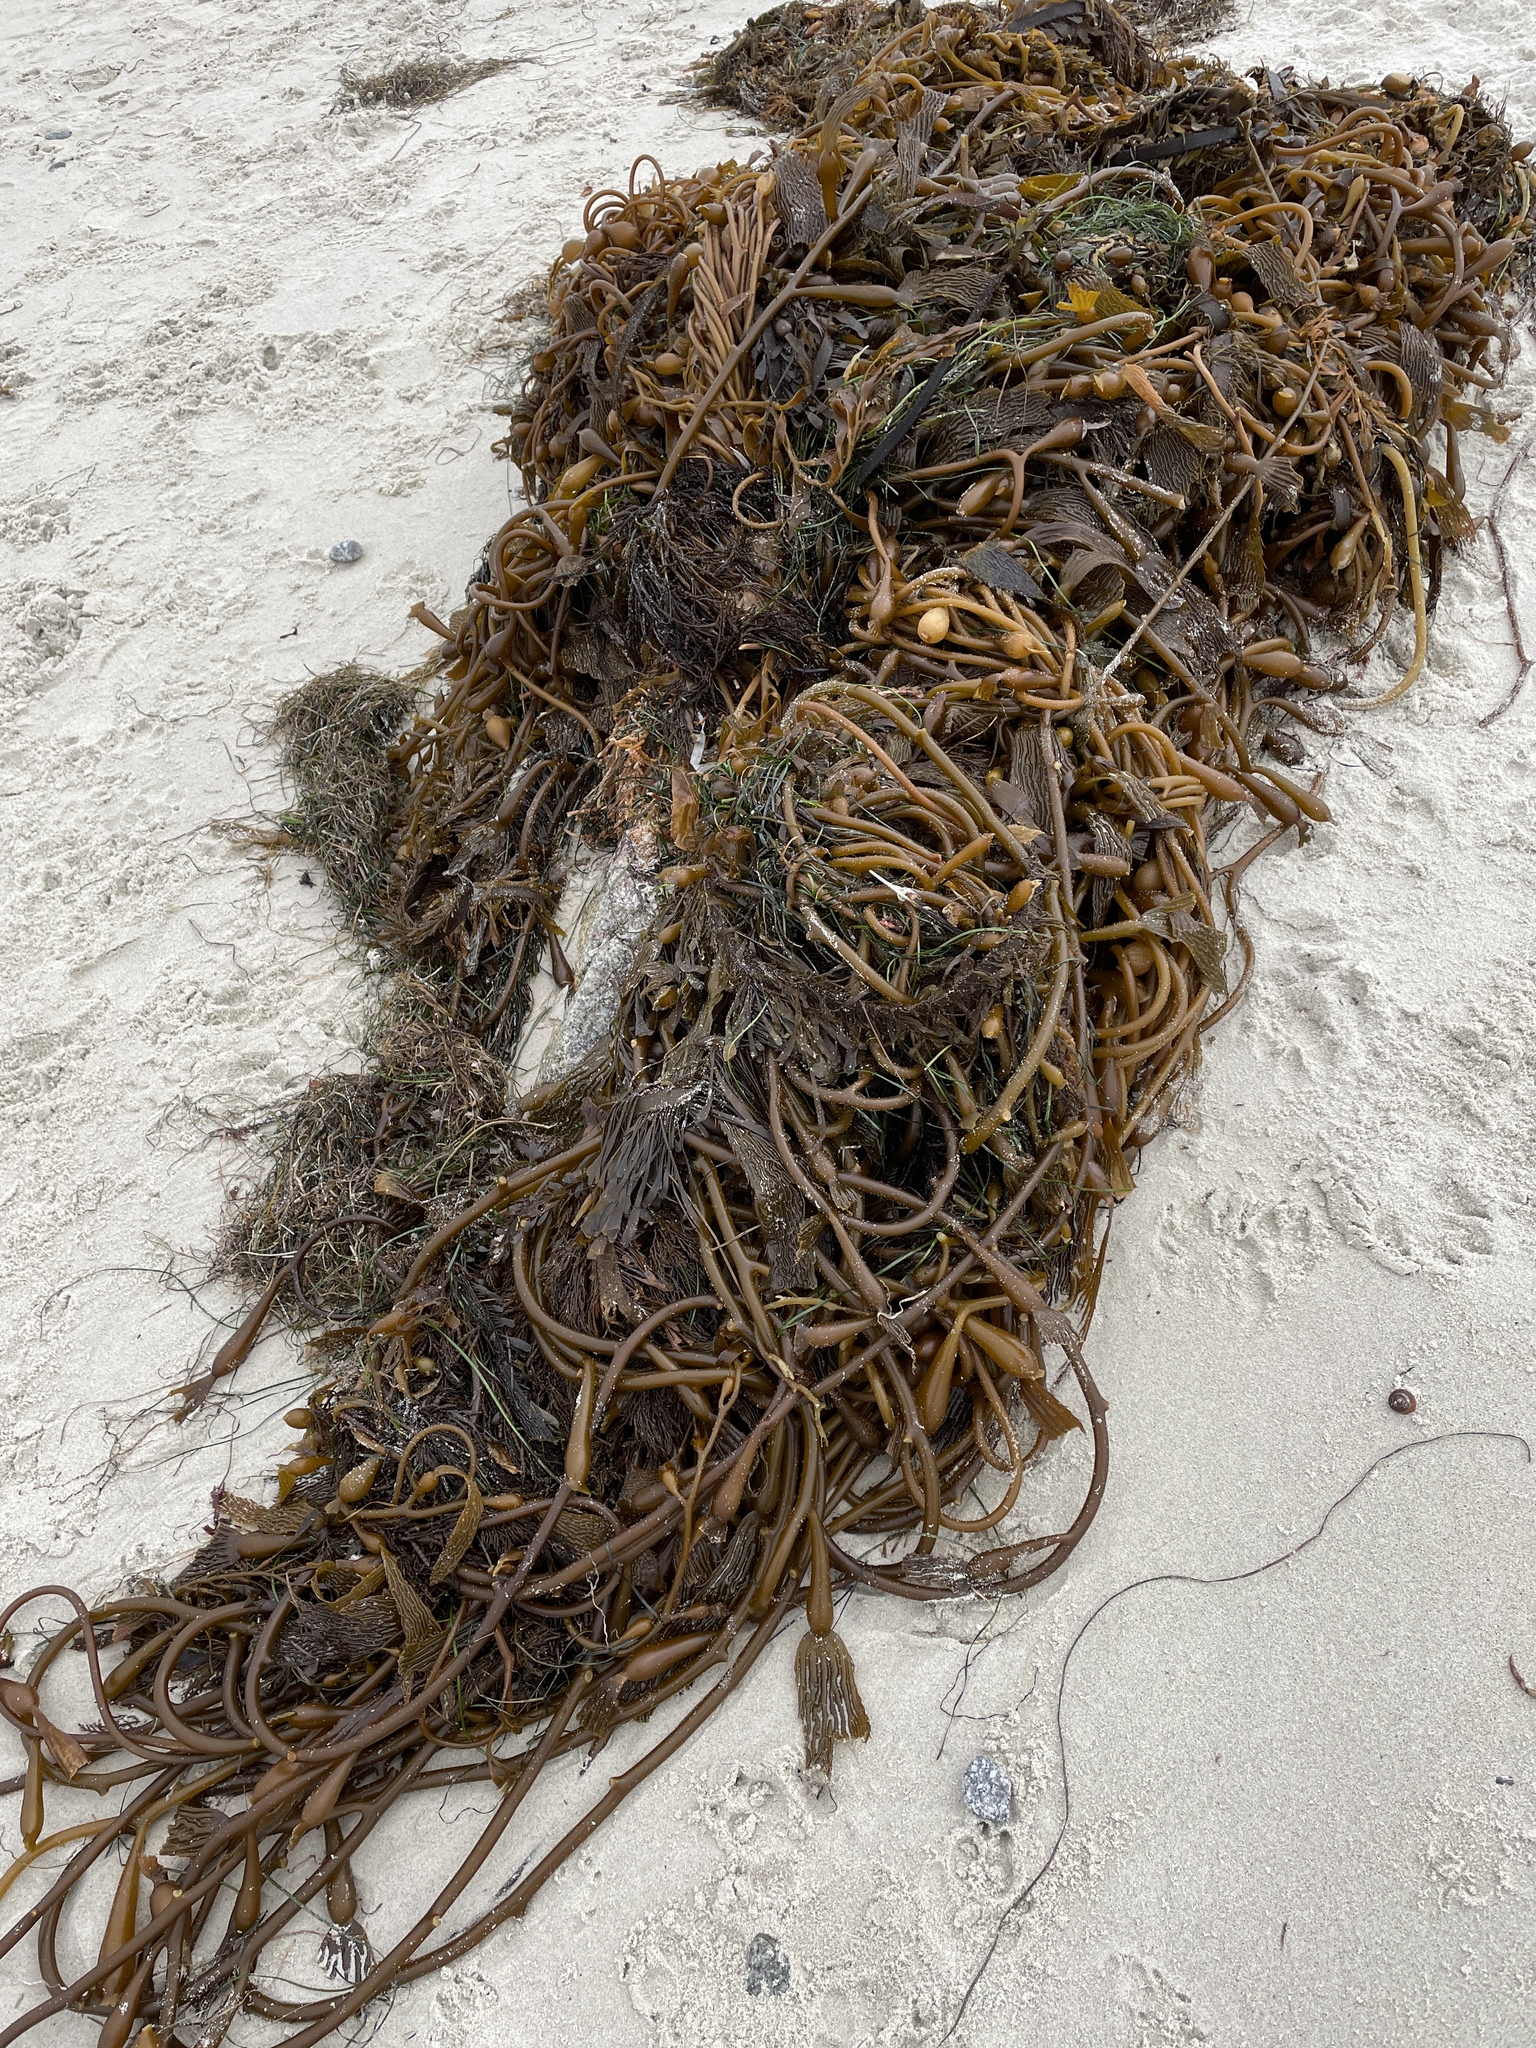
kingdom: Chromista
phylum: Ochrophyta
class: Phaeophyceae
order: Laminariales
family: Laminariaceae
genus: Macrocystis
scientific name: Macrocystis pyrifera
